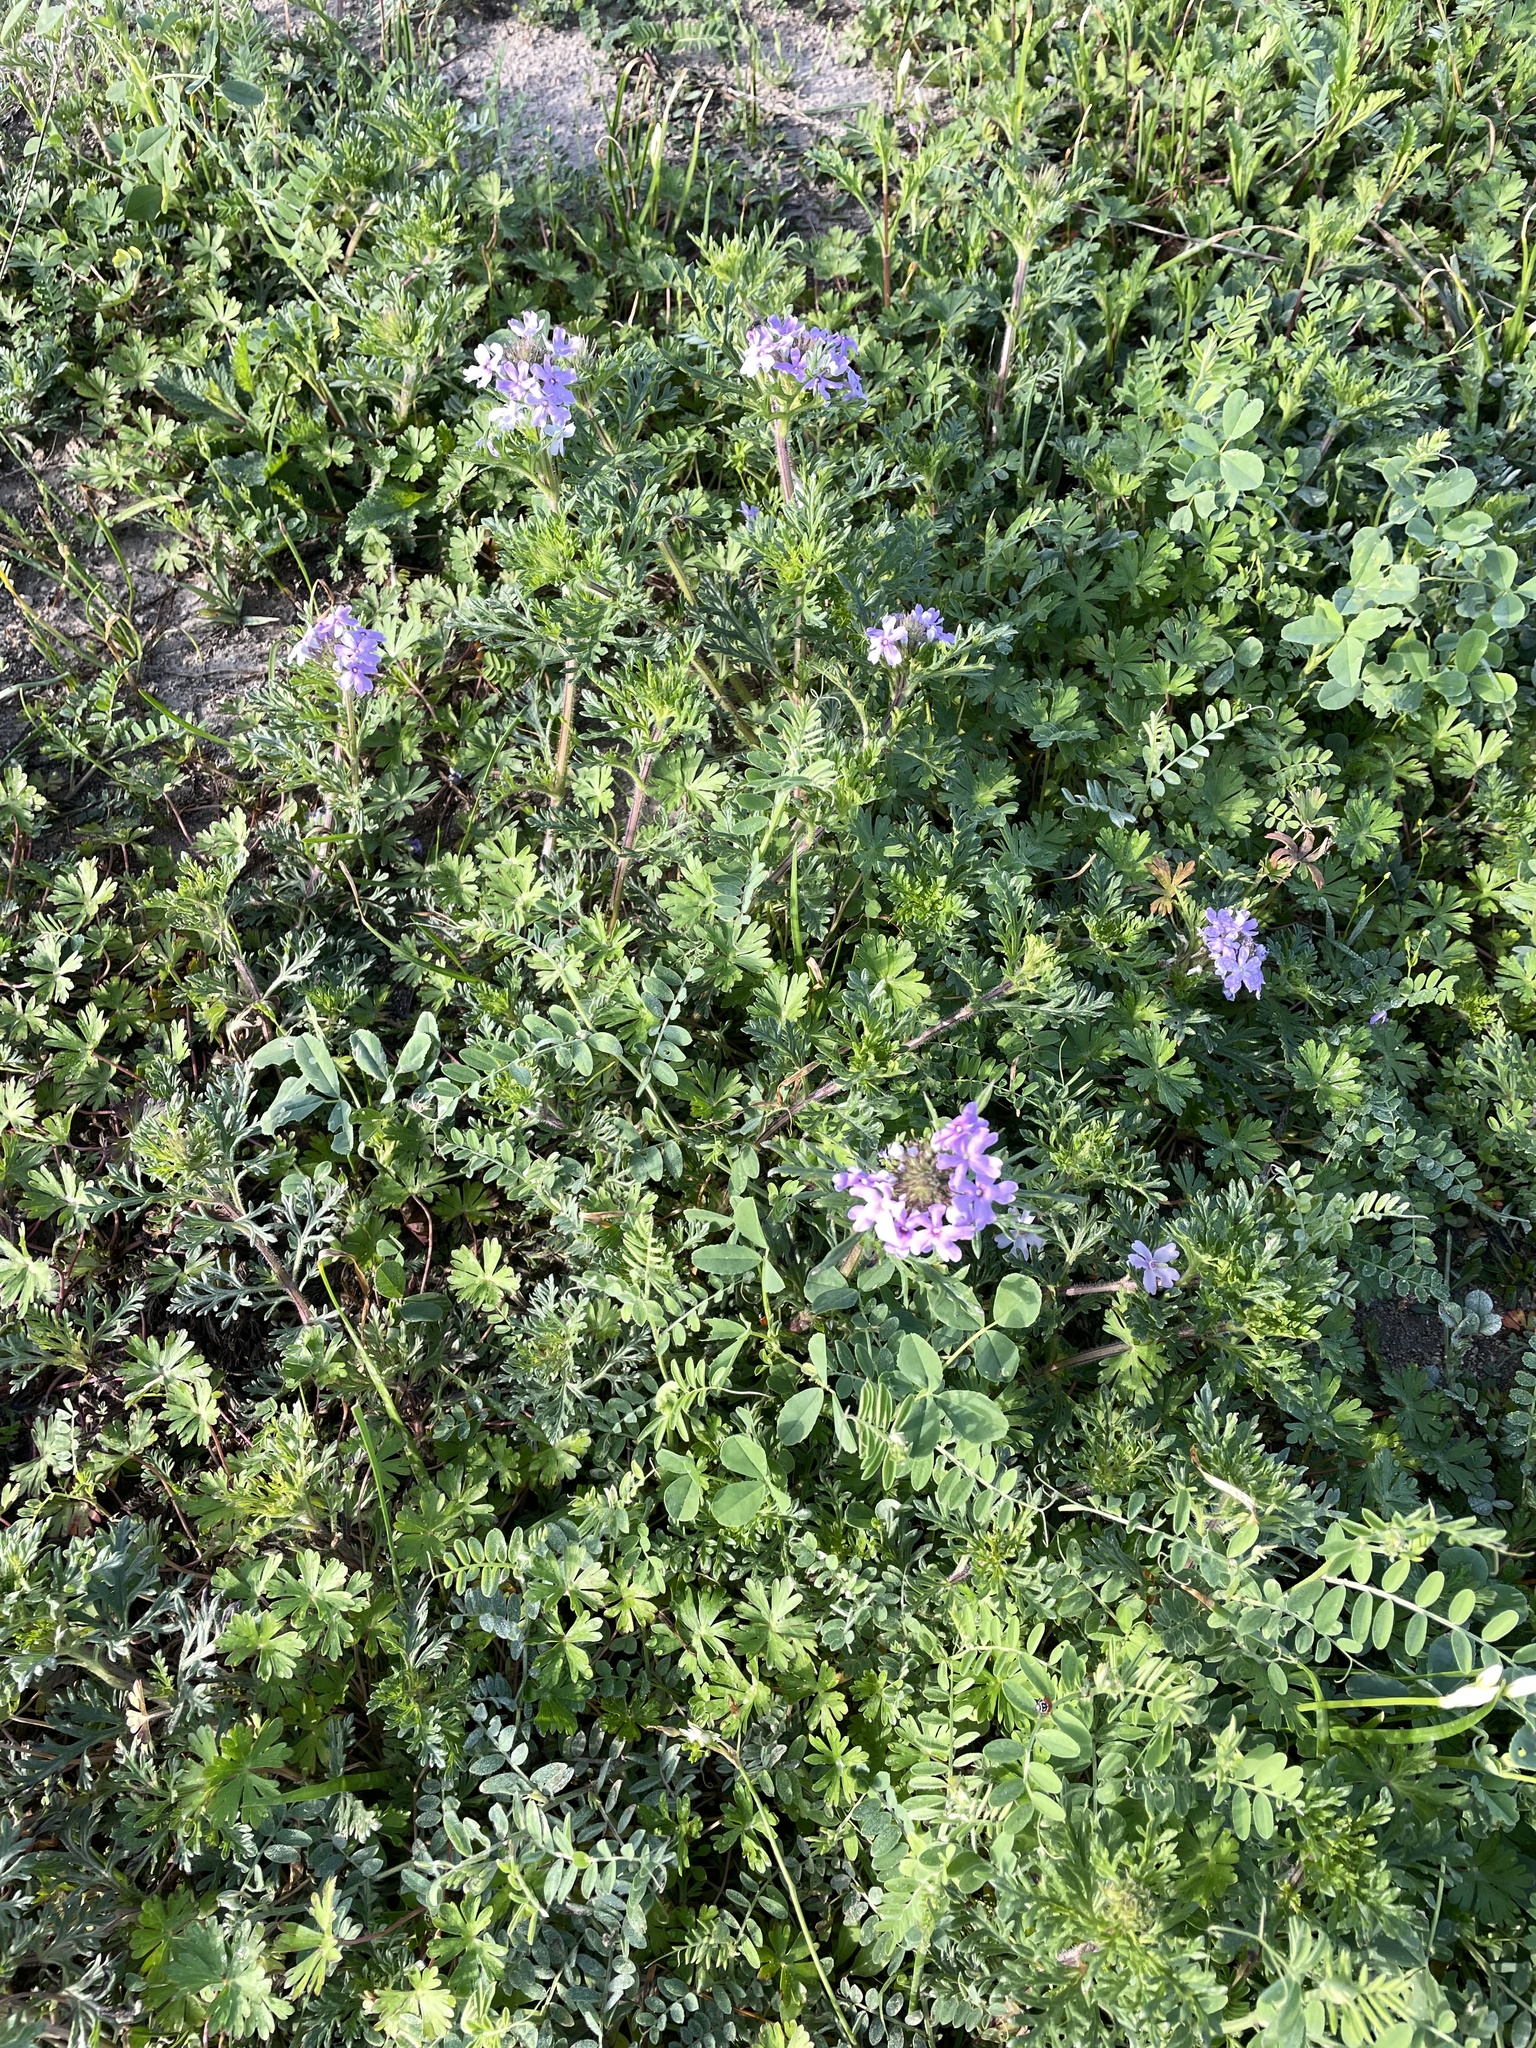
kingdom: Plantae
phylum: Tracheophyta
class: Magnoliopsida
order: Lamiales
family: Verbenaceae
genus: Verbena
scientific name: Verbena bipinnatifida
